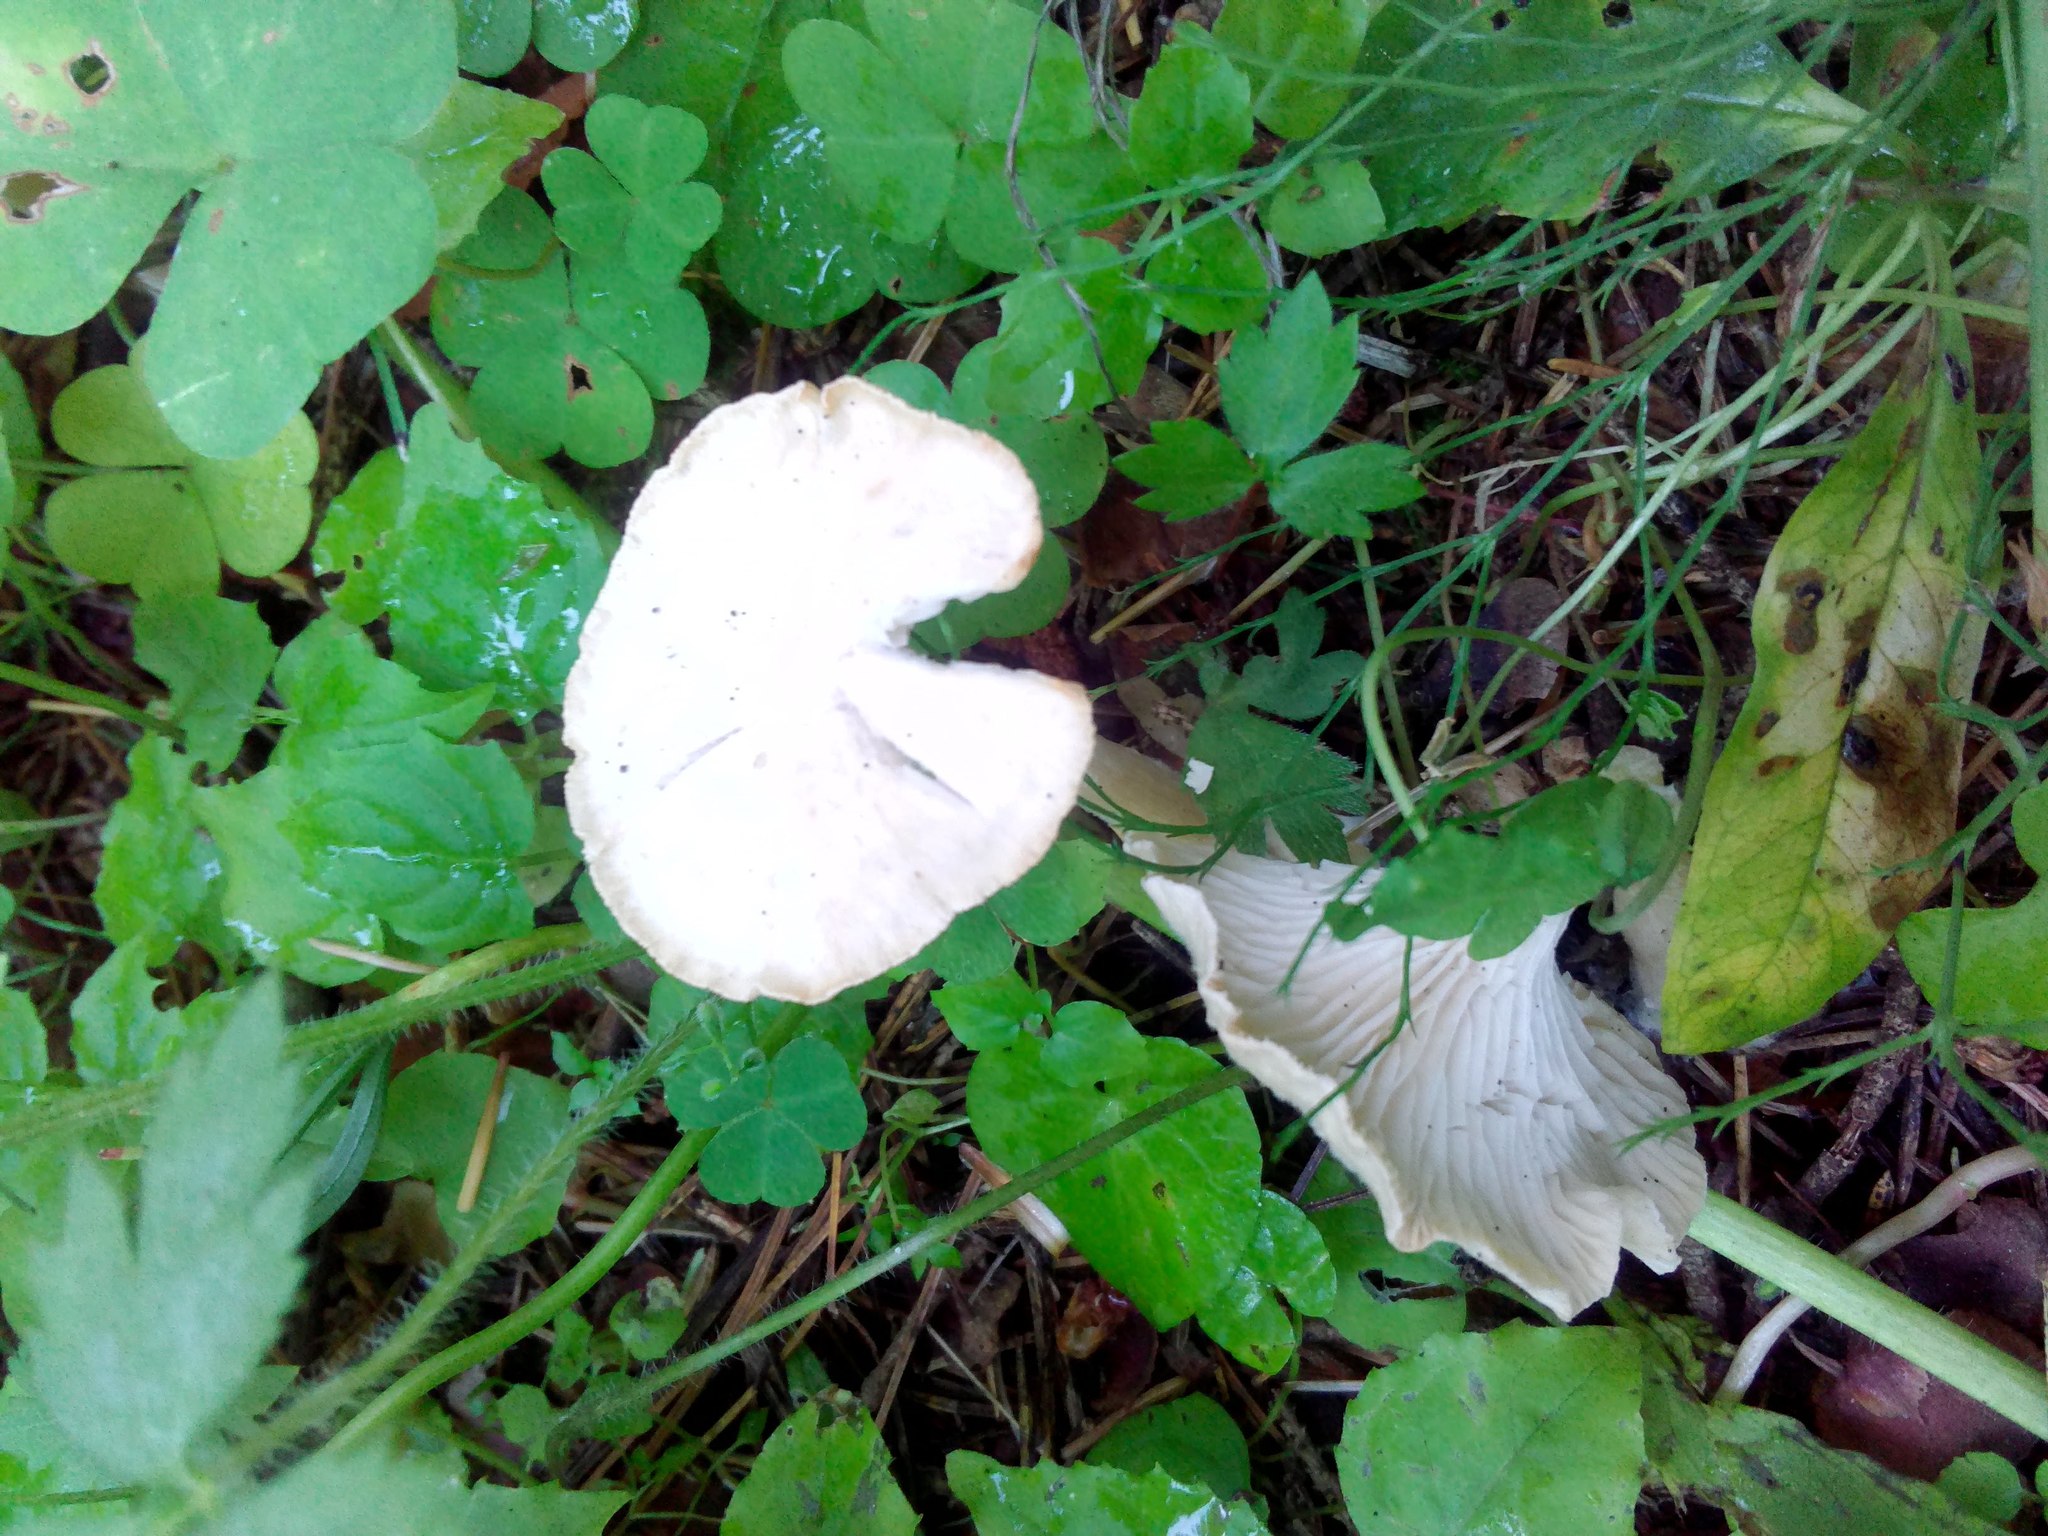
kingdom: Fungi
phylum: Basidiomycota
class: Agaricomycetes
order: Agaricales
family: Tricholomataceae
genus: Infundibulicybe
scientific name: Infundibulicybe gibba
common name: Common funnel
